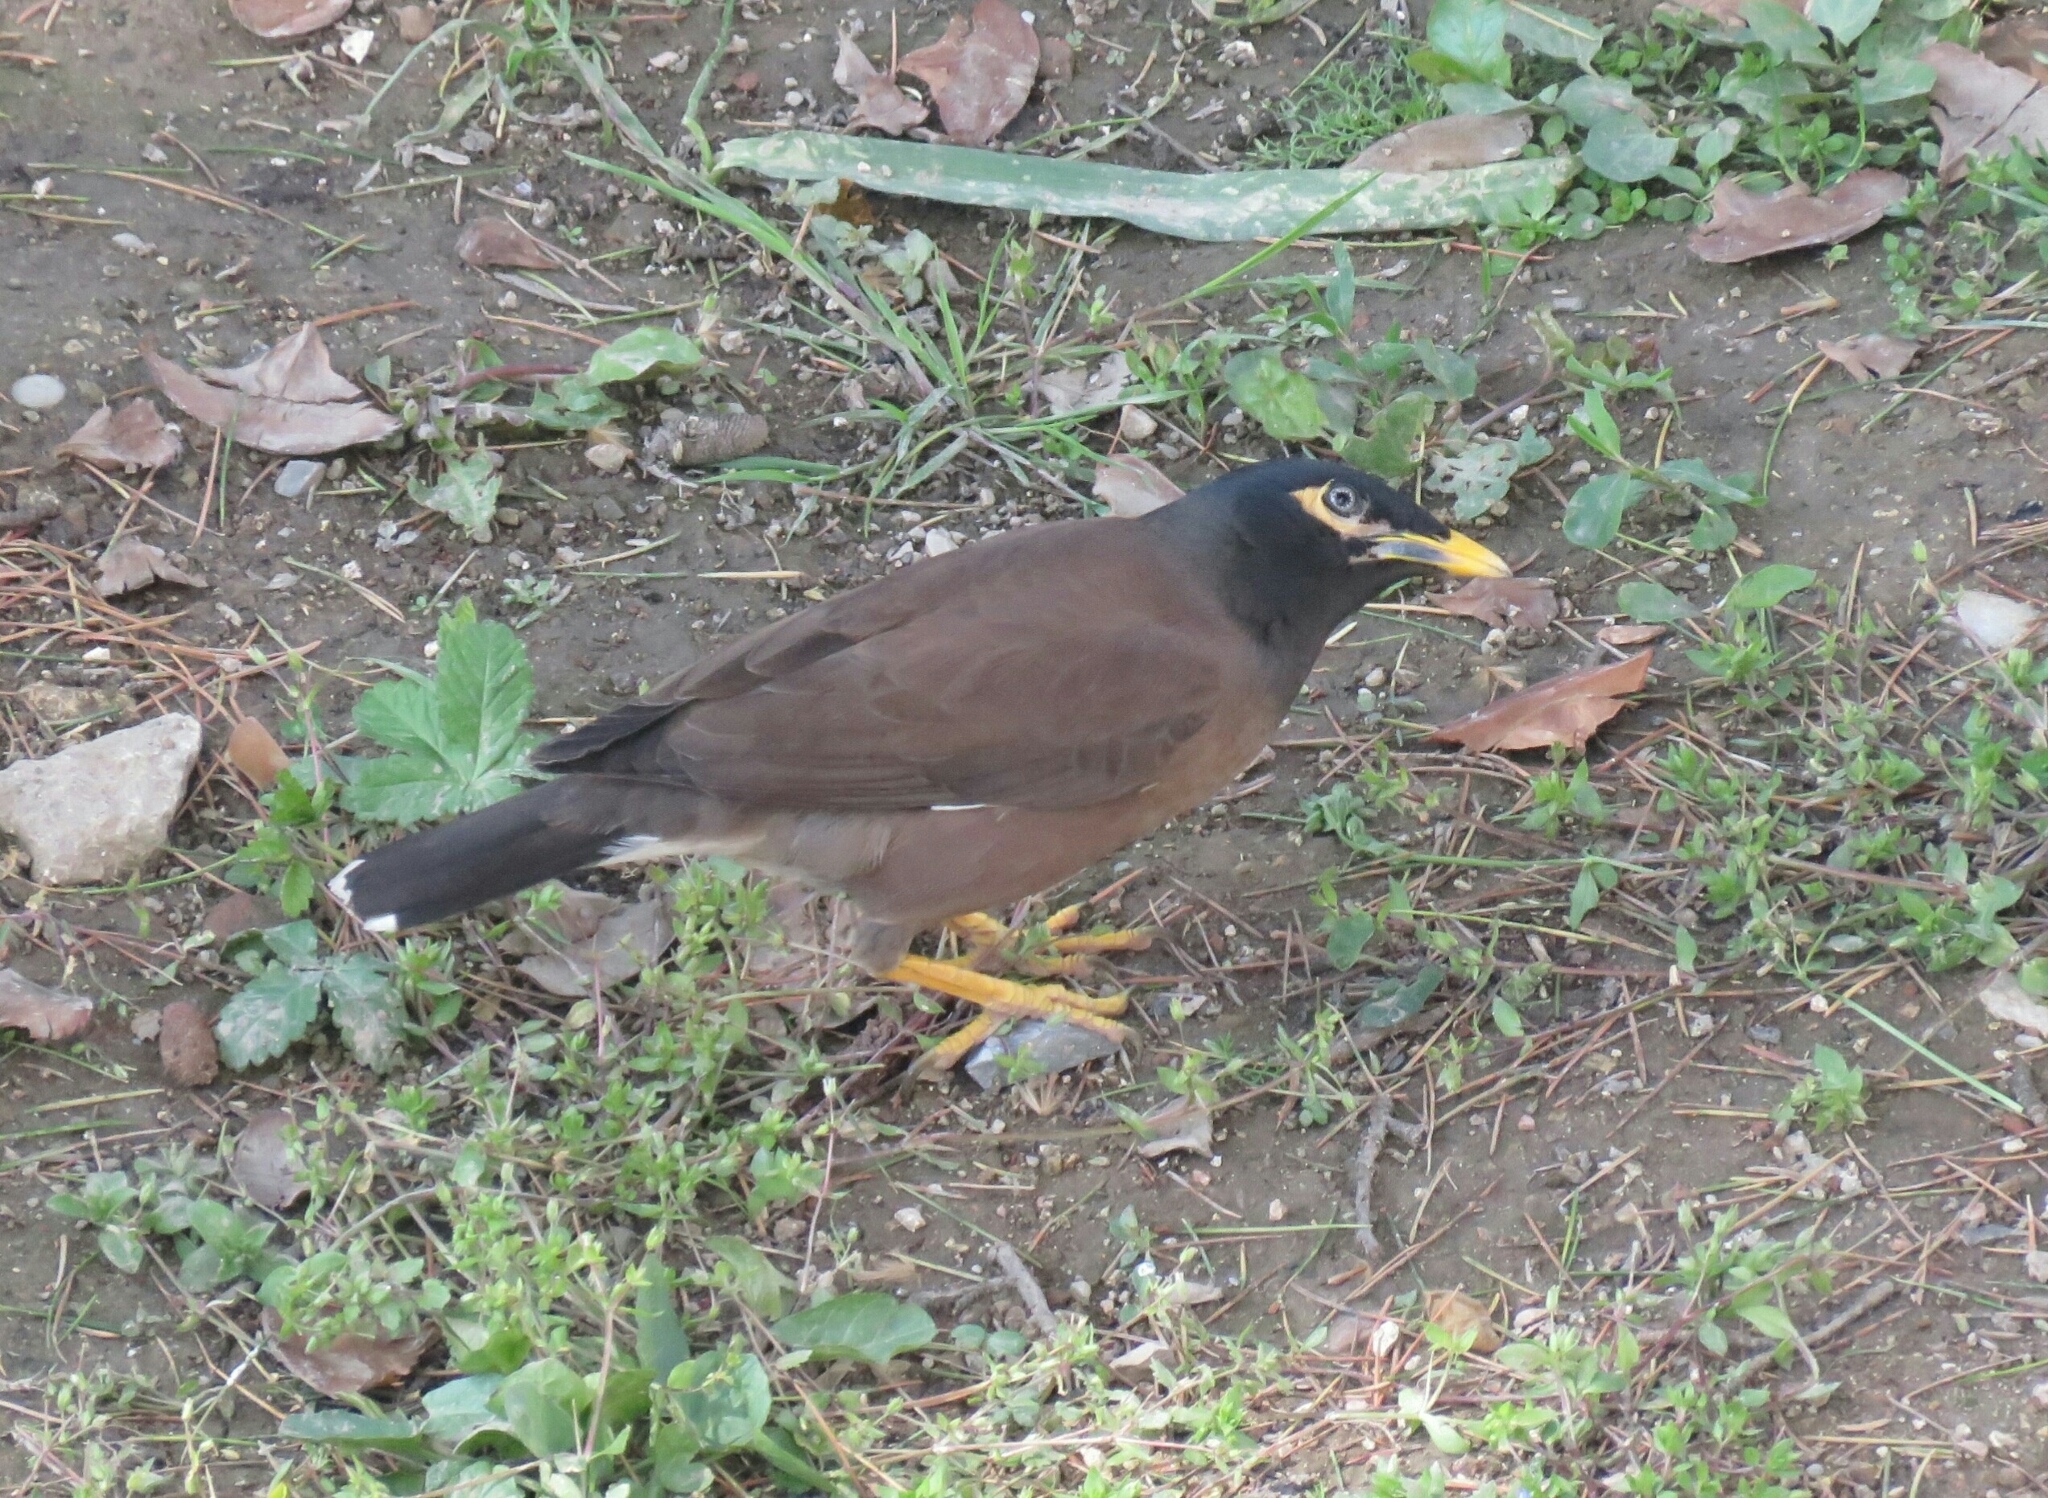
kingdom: Animalia
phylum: Chordata
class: Aves
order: Passeriformes
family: Sturnidae
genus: Acridotheres
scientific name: Acridotheres tristis
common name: Common myna
